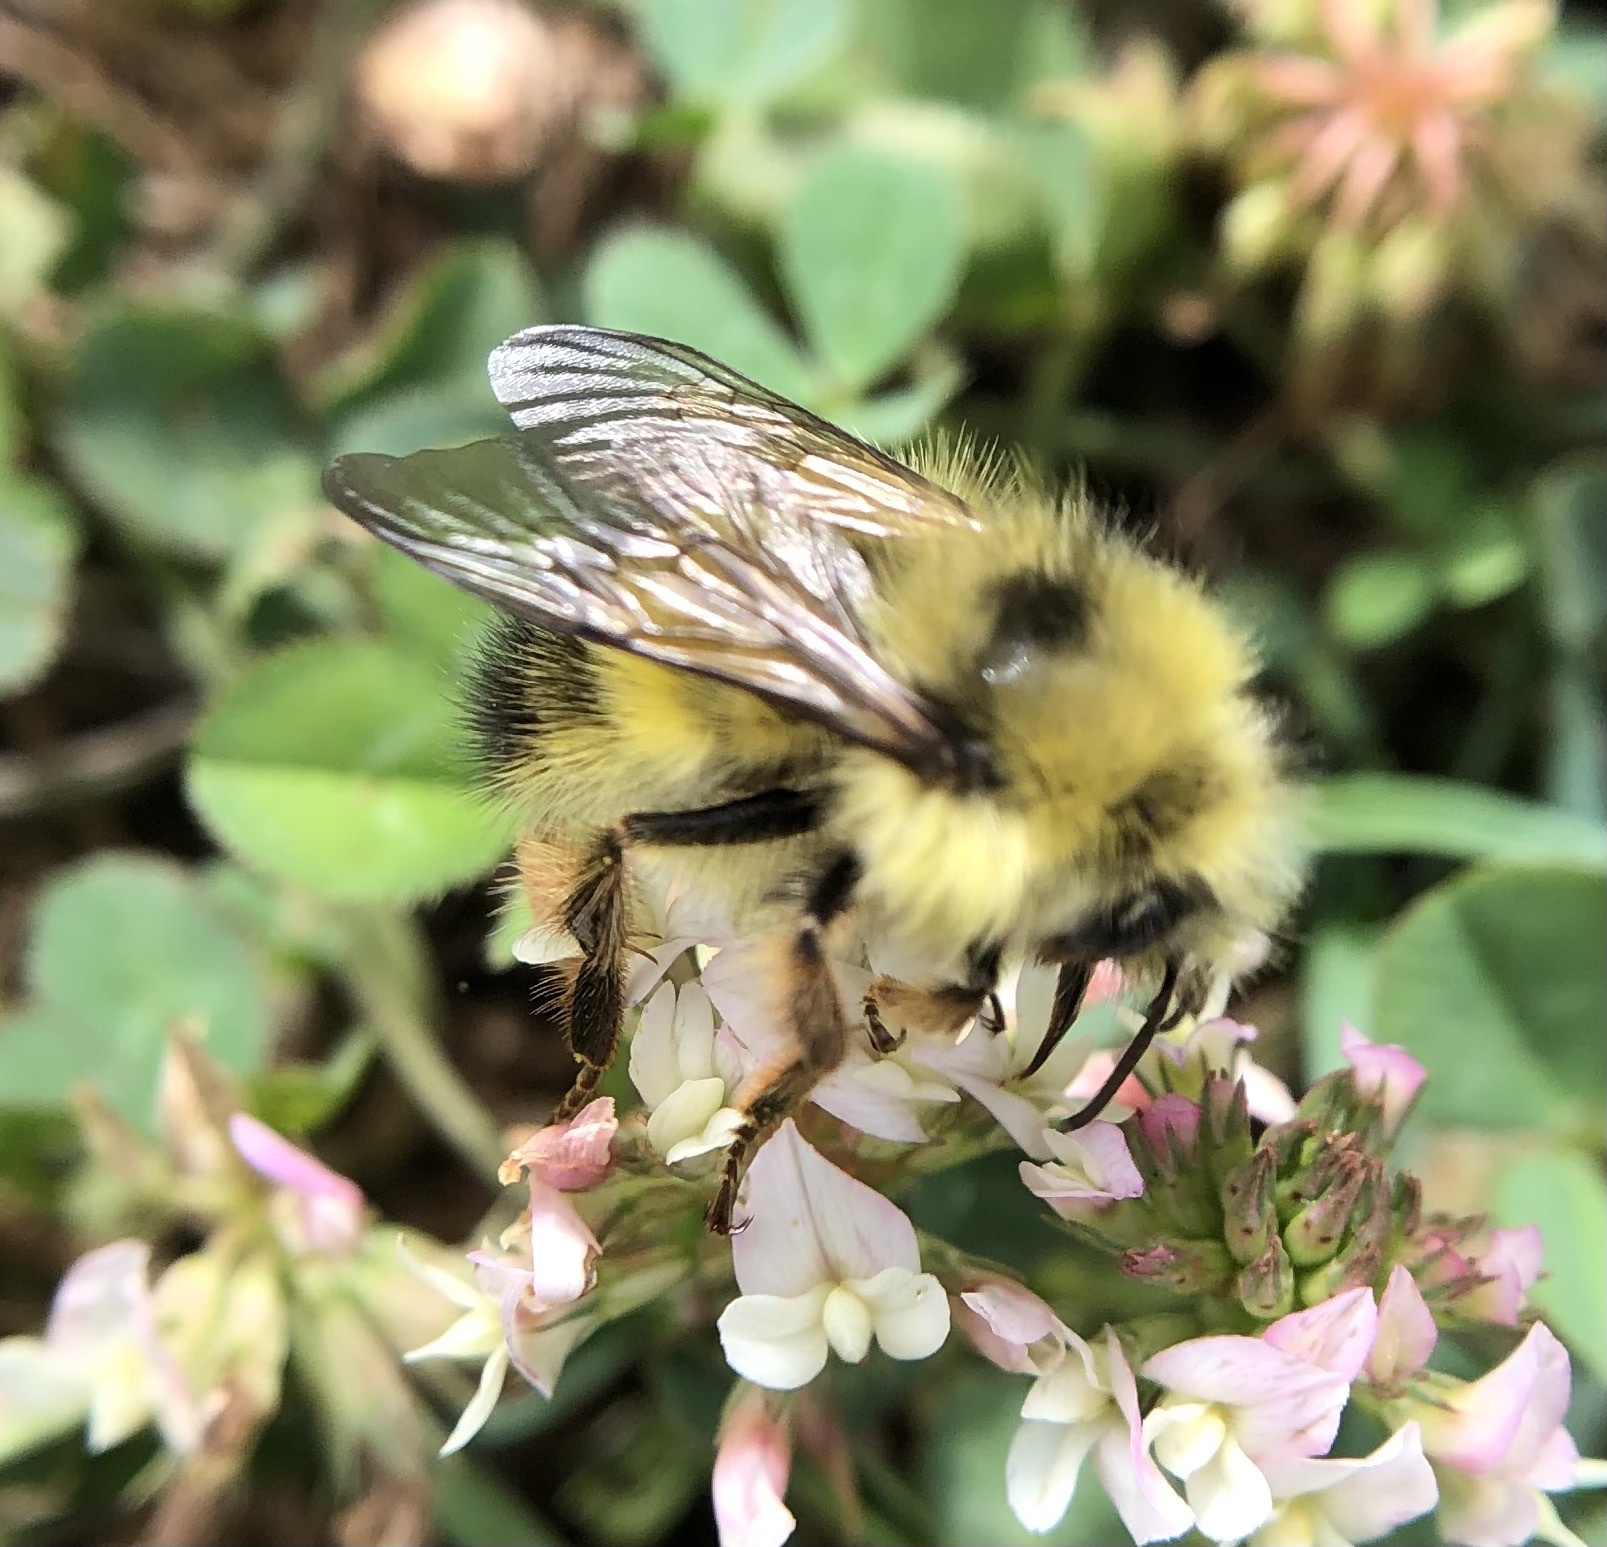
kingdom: Animalia
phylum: Arthropoda
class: Insecta
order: Hymenoptera
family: Apidae
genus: Bombus
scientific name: Bombus flavifrons
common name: Yellow head bumble bee
